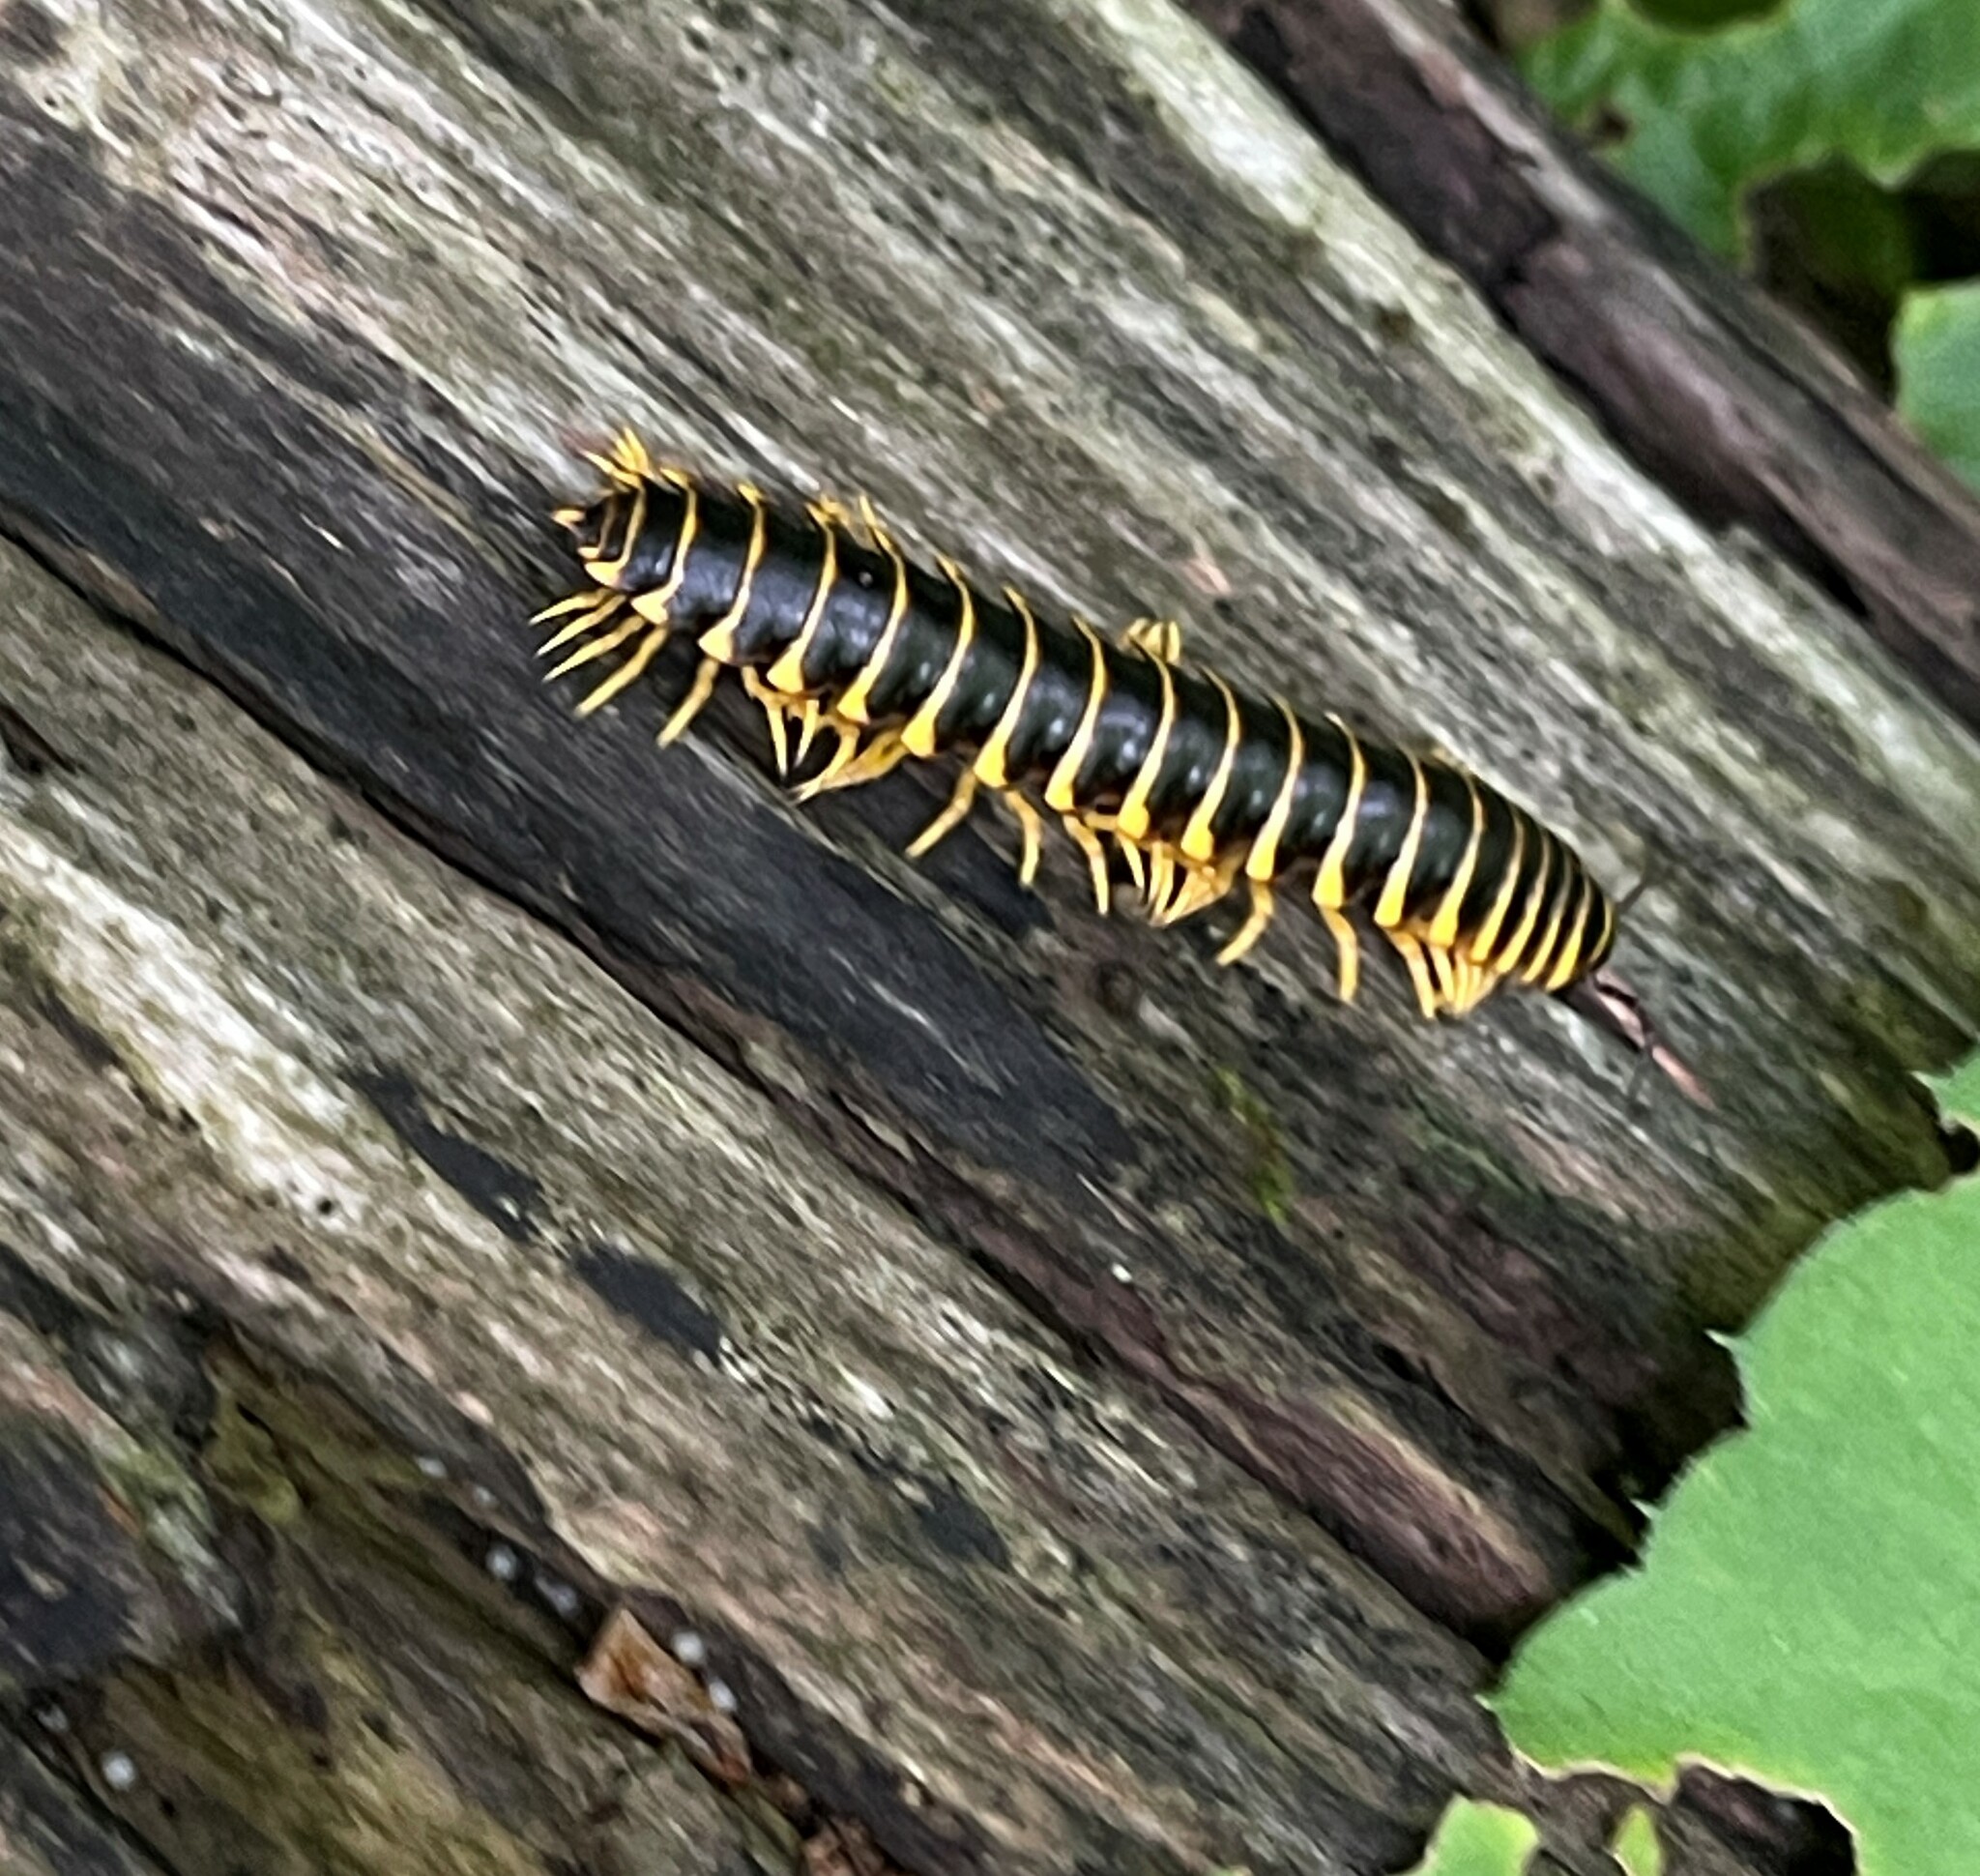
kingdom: Animalia
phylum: Arthropoda
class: Diplopoda
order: Polydesmida
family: Xystodesmidae
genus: Apheloria
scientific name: Apheloria virginiensis
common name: Black-and-gold flat millipede
